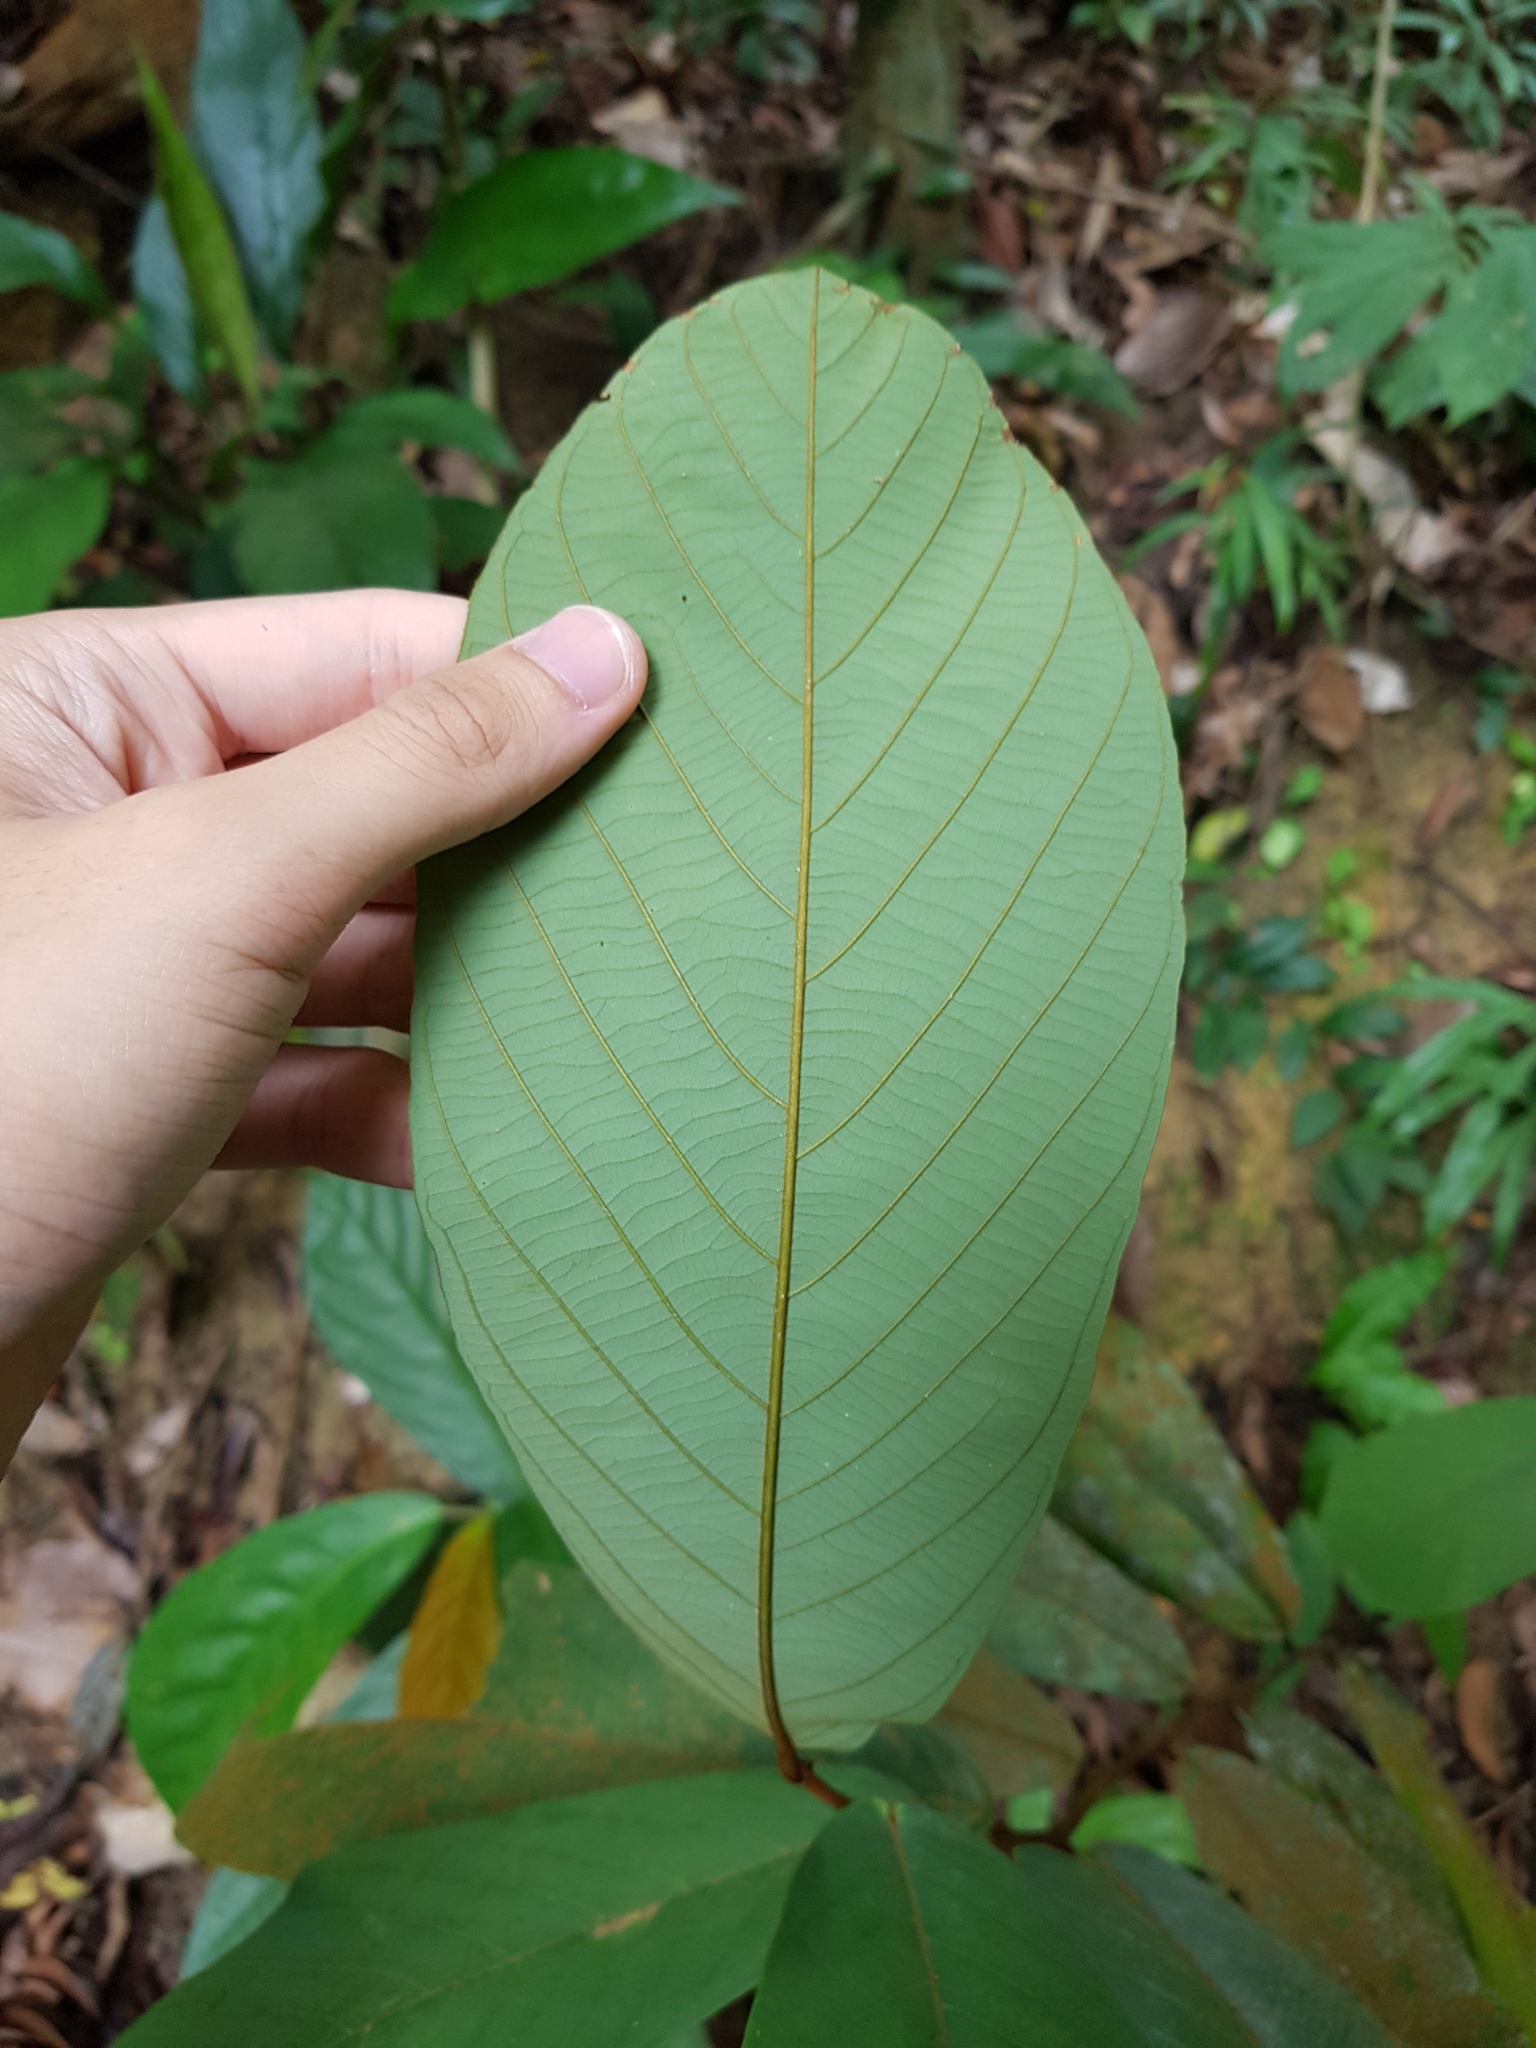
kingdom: Plantae
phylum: Tracheophyta
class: Magnoliopsida
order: Magnoliales
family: Annonaceae
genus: Friesodielsia
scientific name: Friesodielsia latifolia
